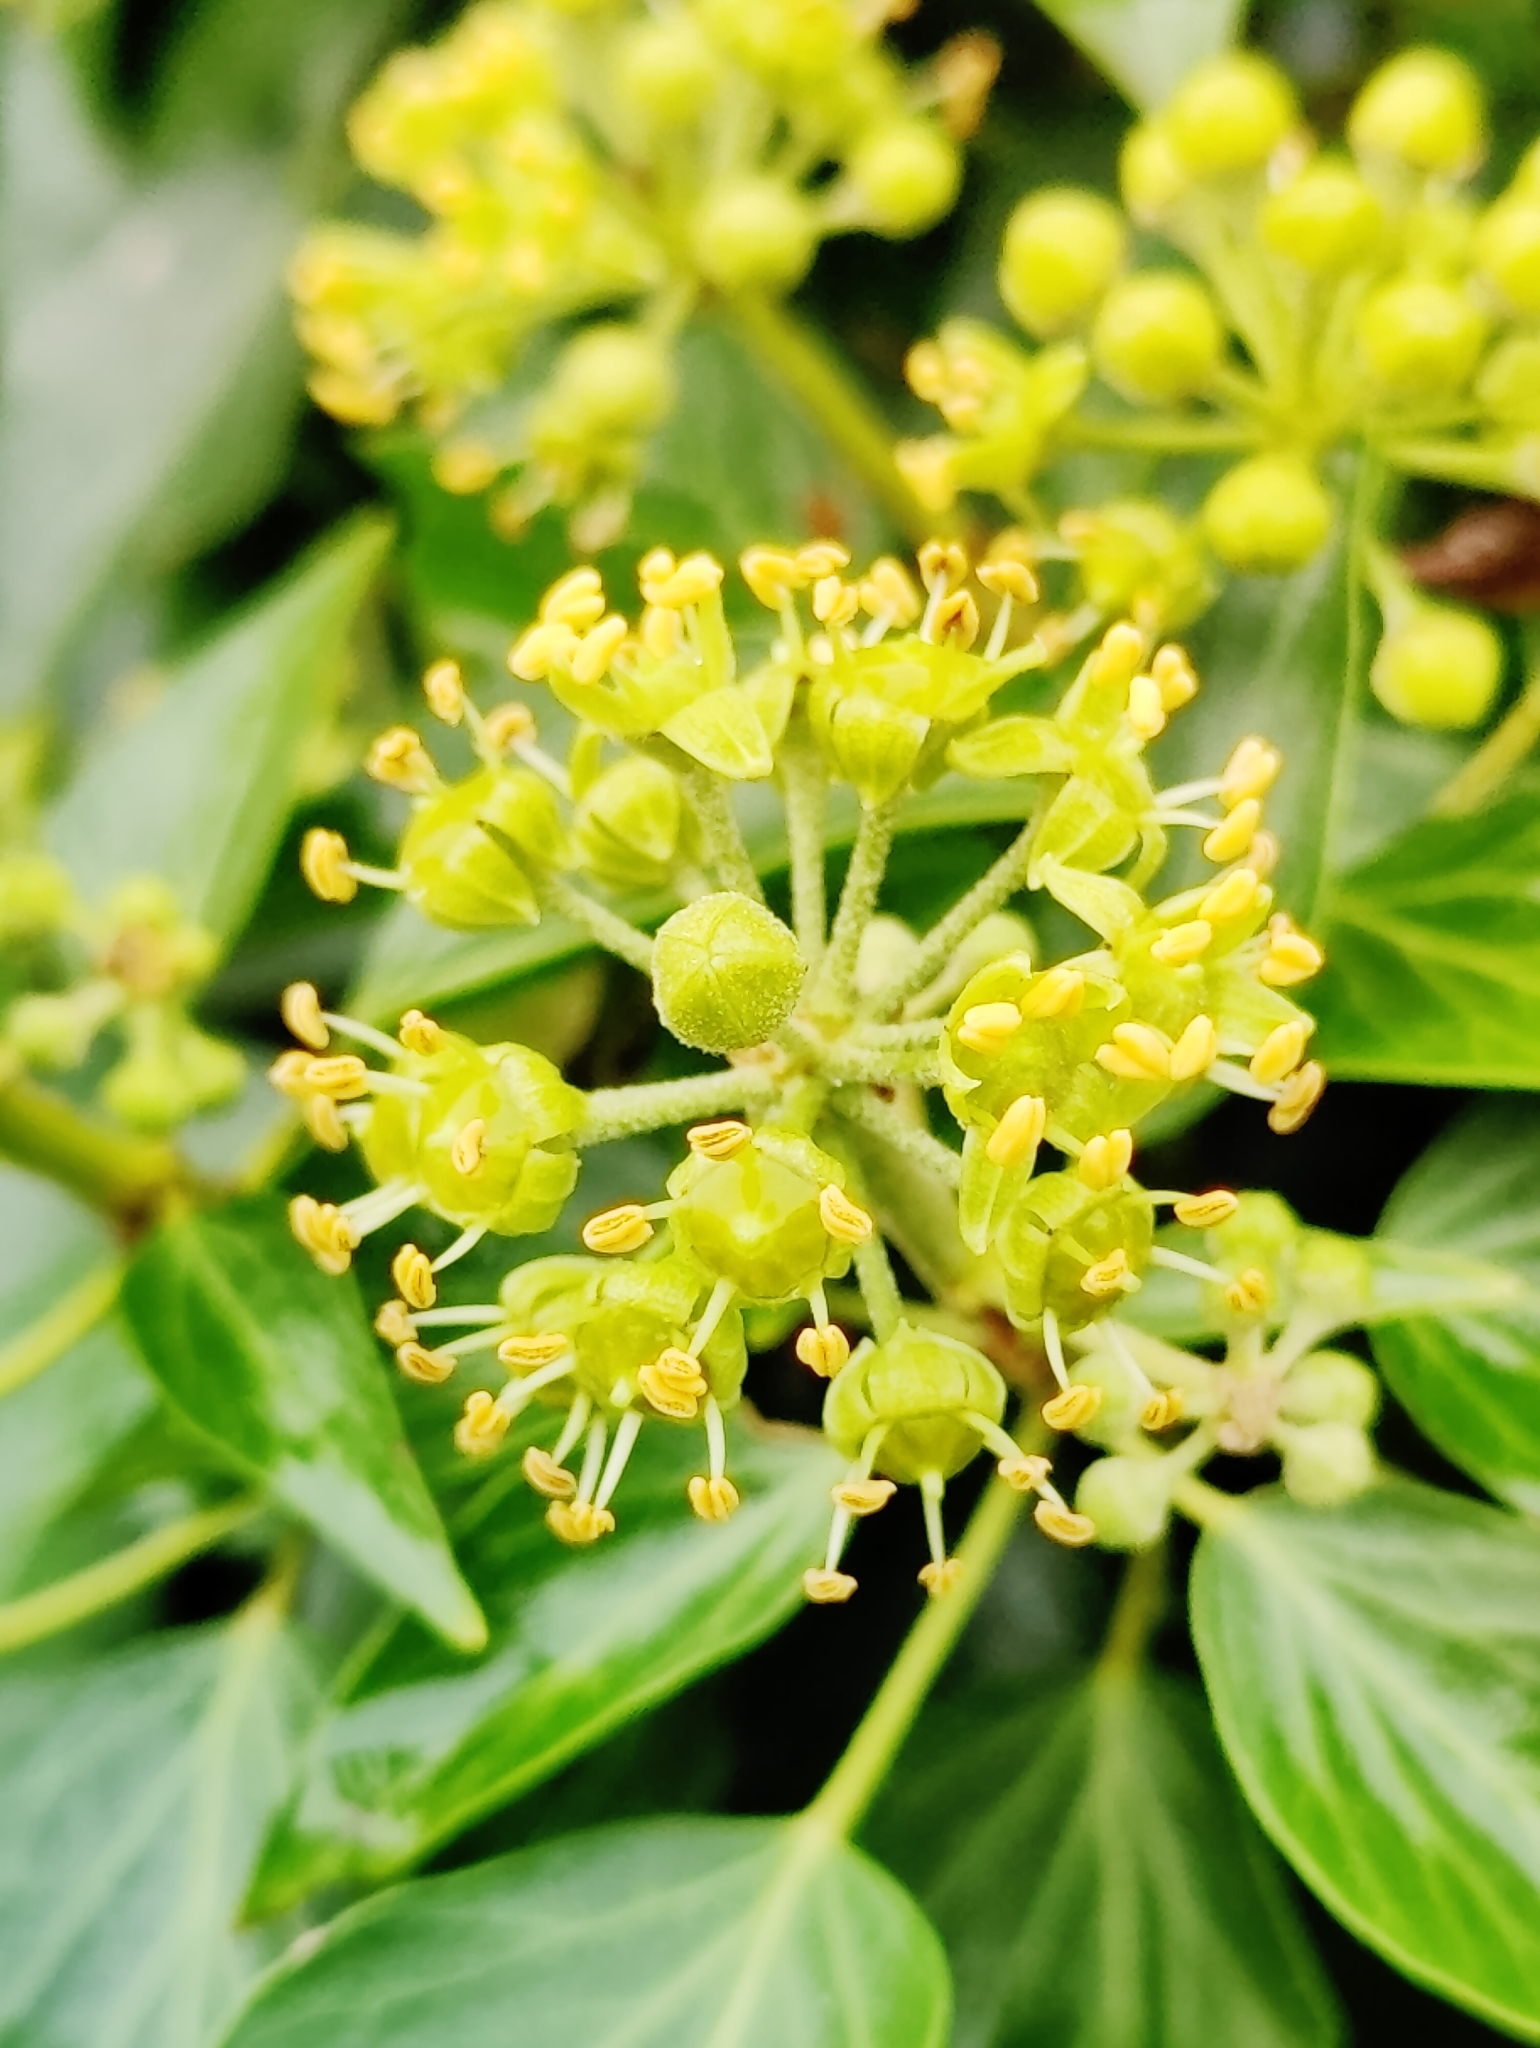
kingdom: Plantae
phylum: Tracheophyta
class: Magnoliopsida
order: Apiales
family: Araliaceae
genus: Hedera
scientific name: Hedera helix
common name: Ivy
